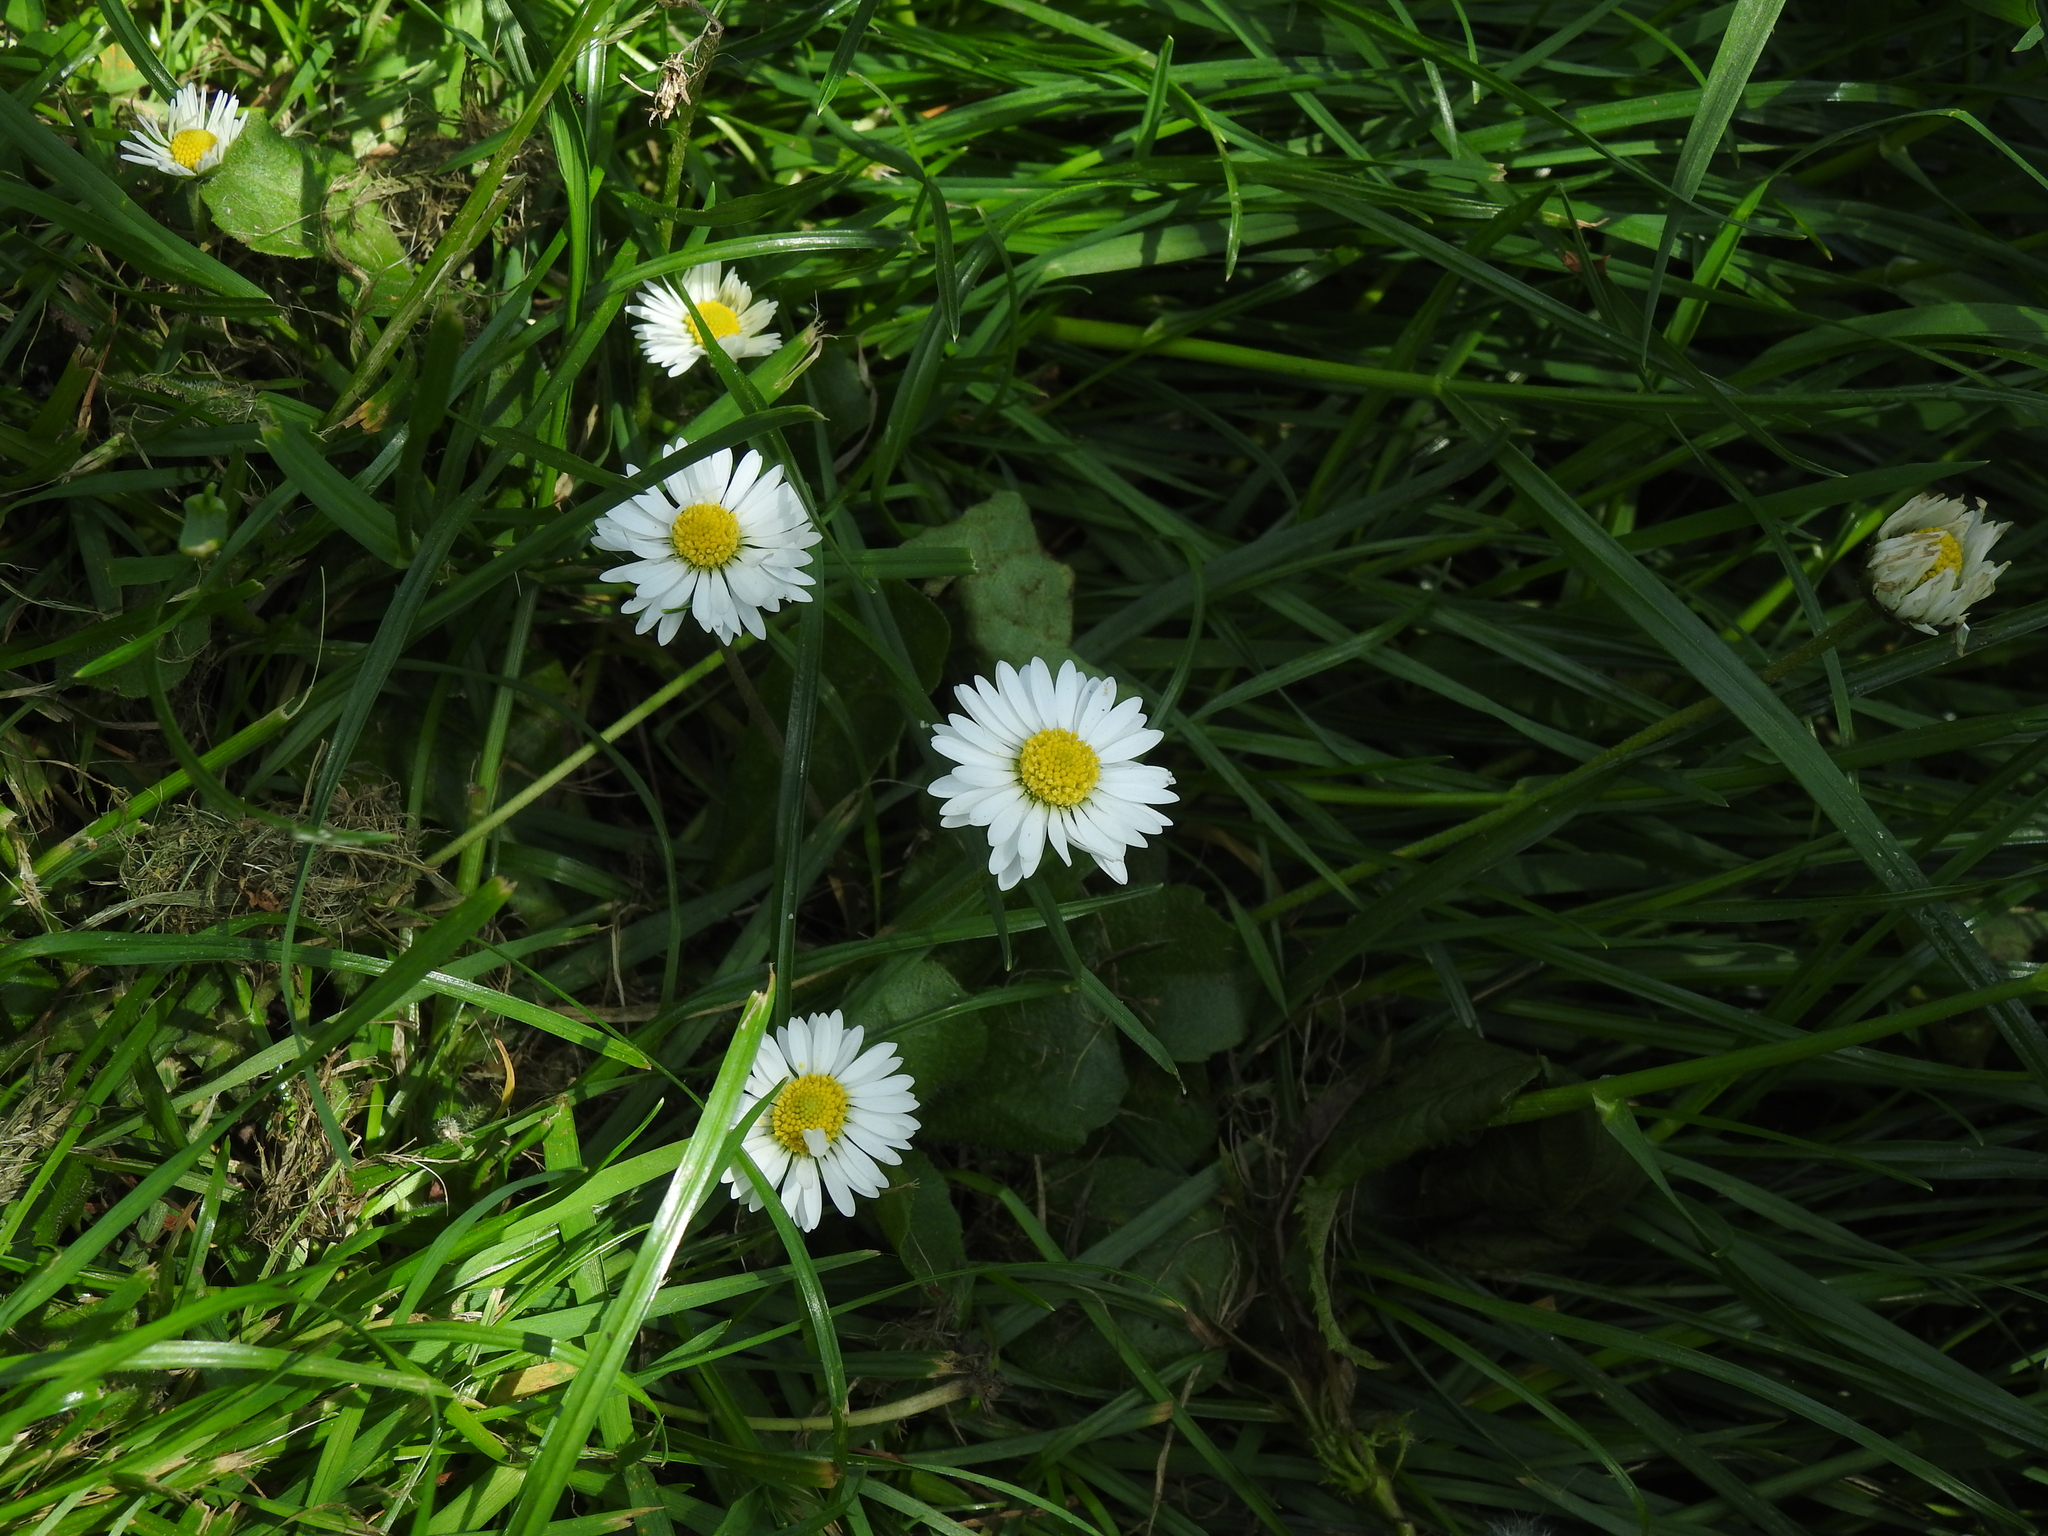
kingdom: Plantae
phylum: Tracheophyta
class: Magnoliopsida
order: Asterales
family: Asteraceae
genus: Bellis
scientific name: Bellis perennis
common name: Lawndaisy
